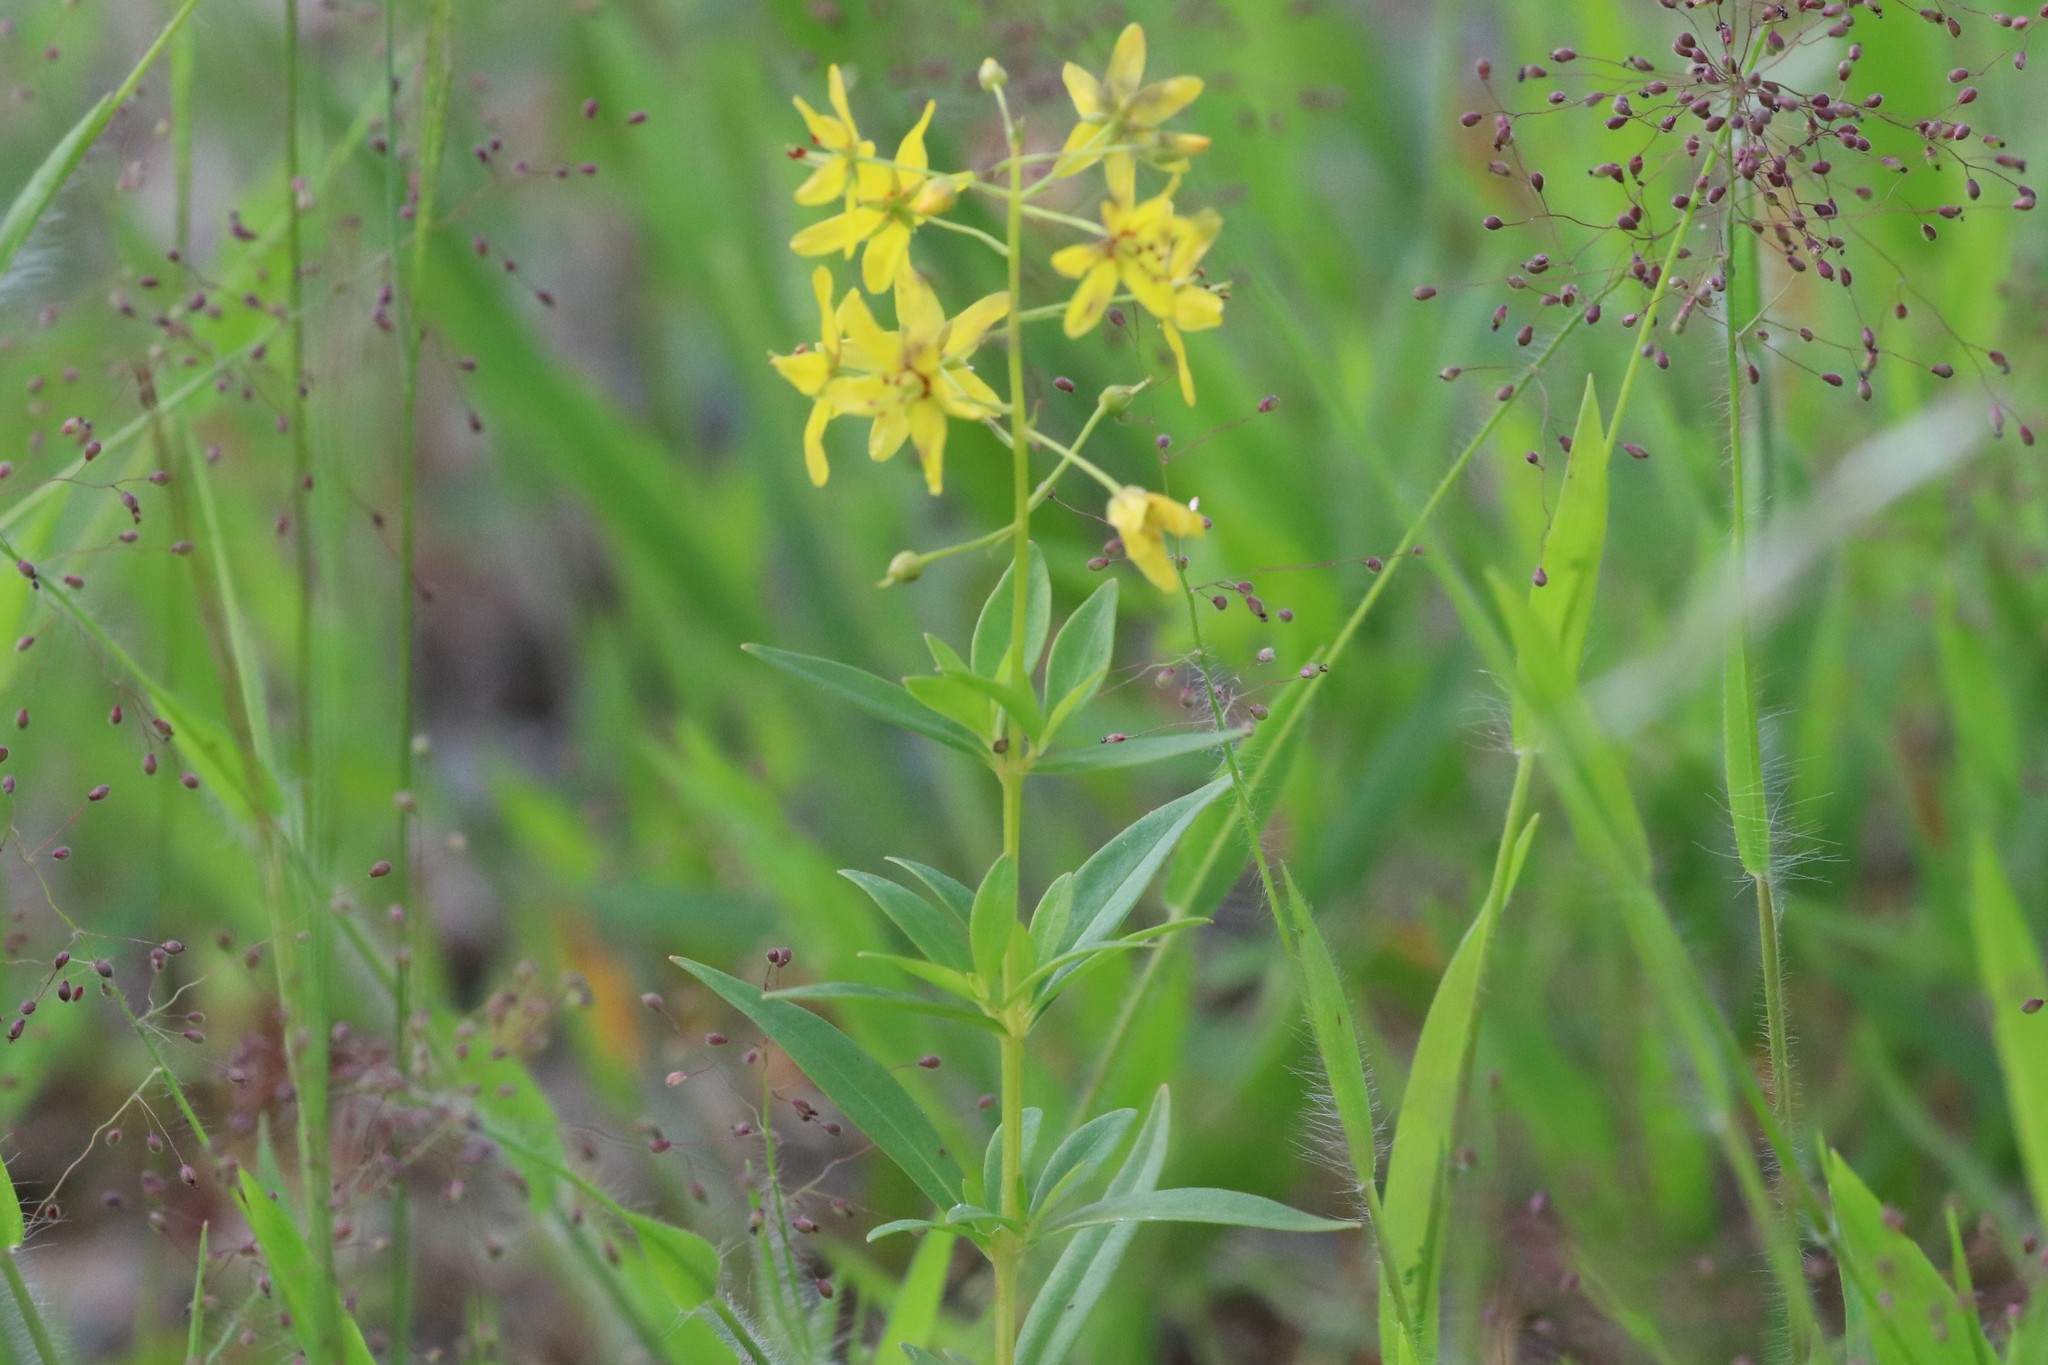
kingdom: Plantae
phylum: Tracheophyta
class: Magnoliopsida
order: Ericales
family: Primulaceae
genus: Lysimachia
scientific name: Lysimachia terrestris
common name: Lake loosestrife
